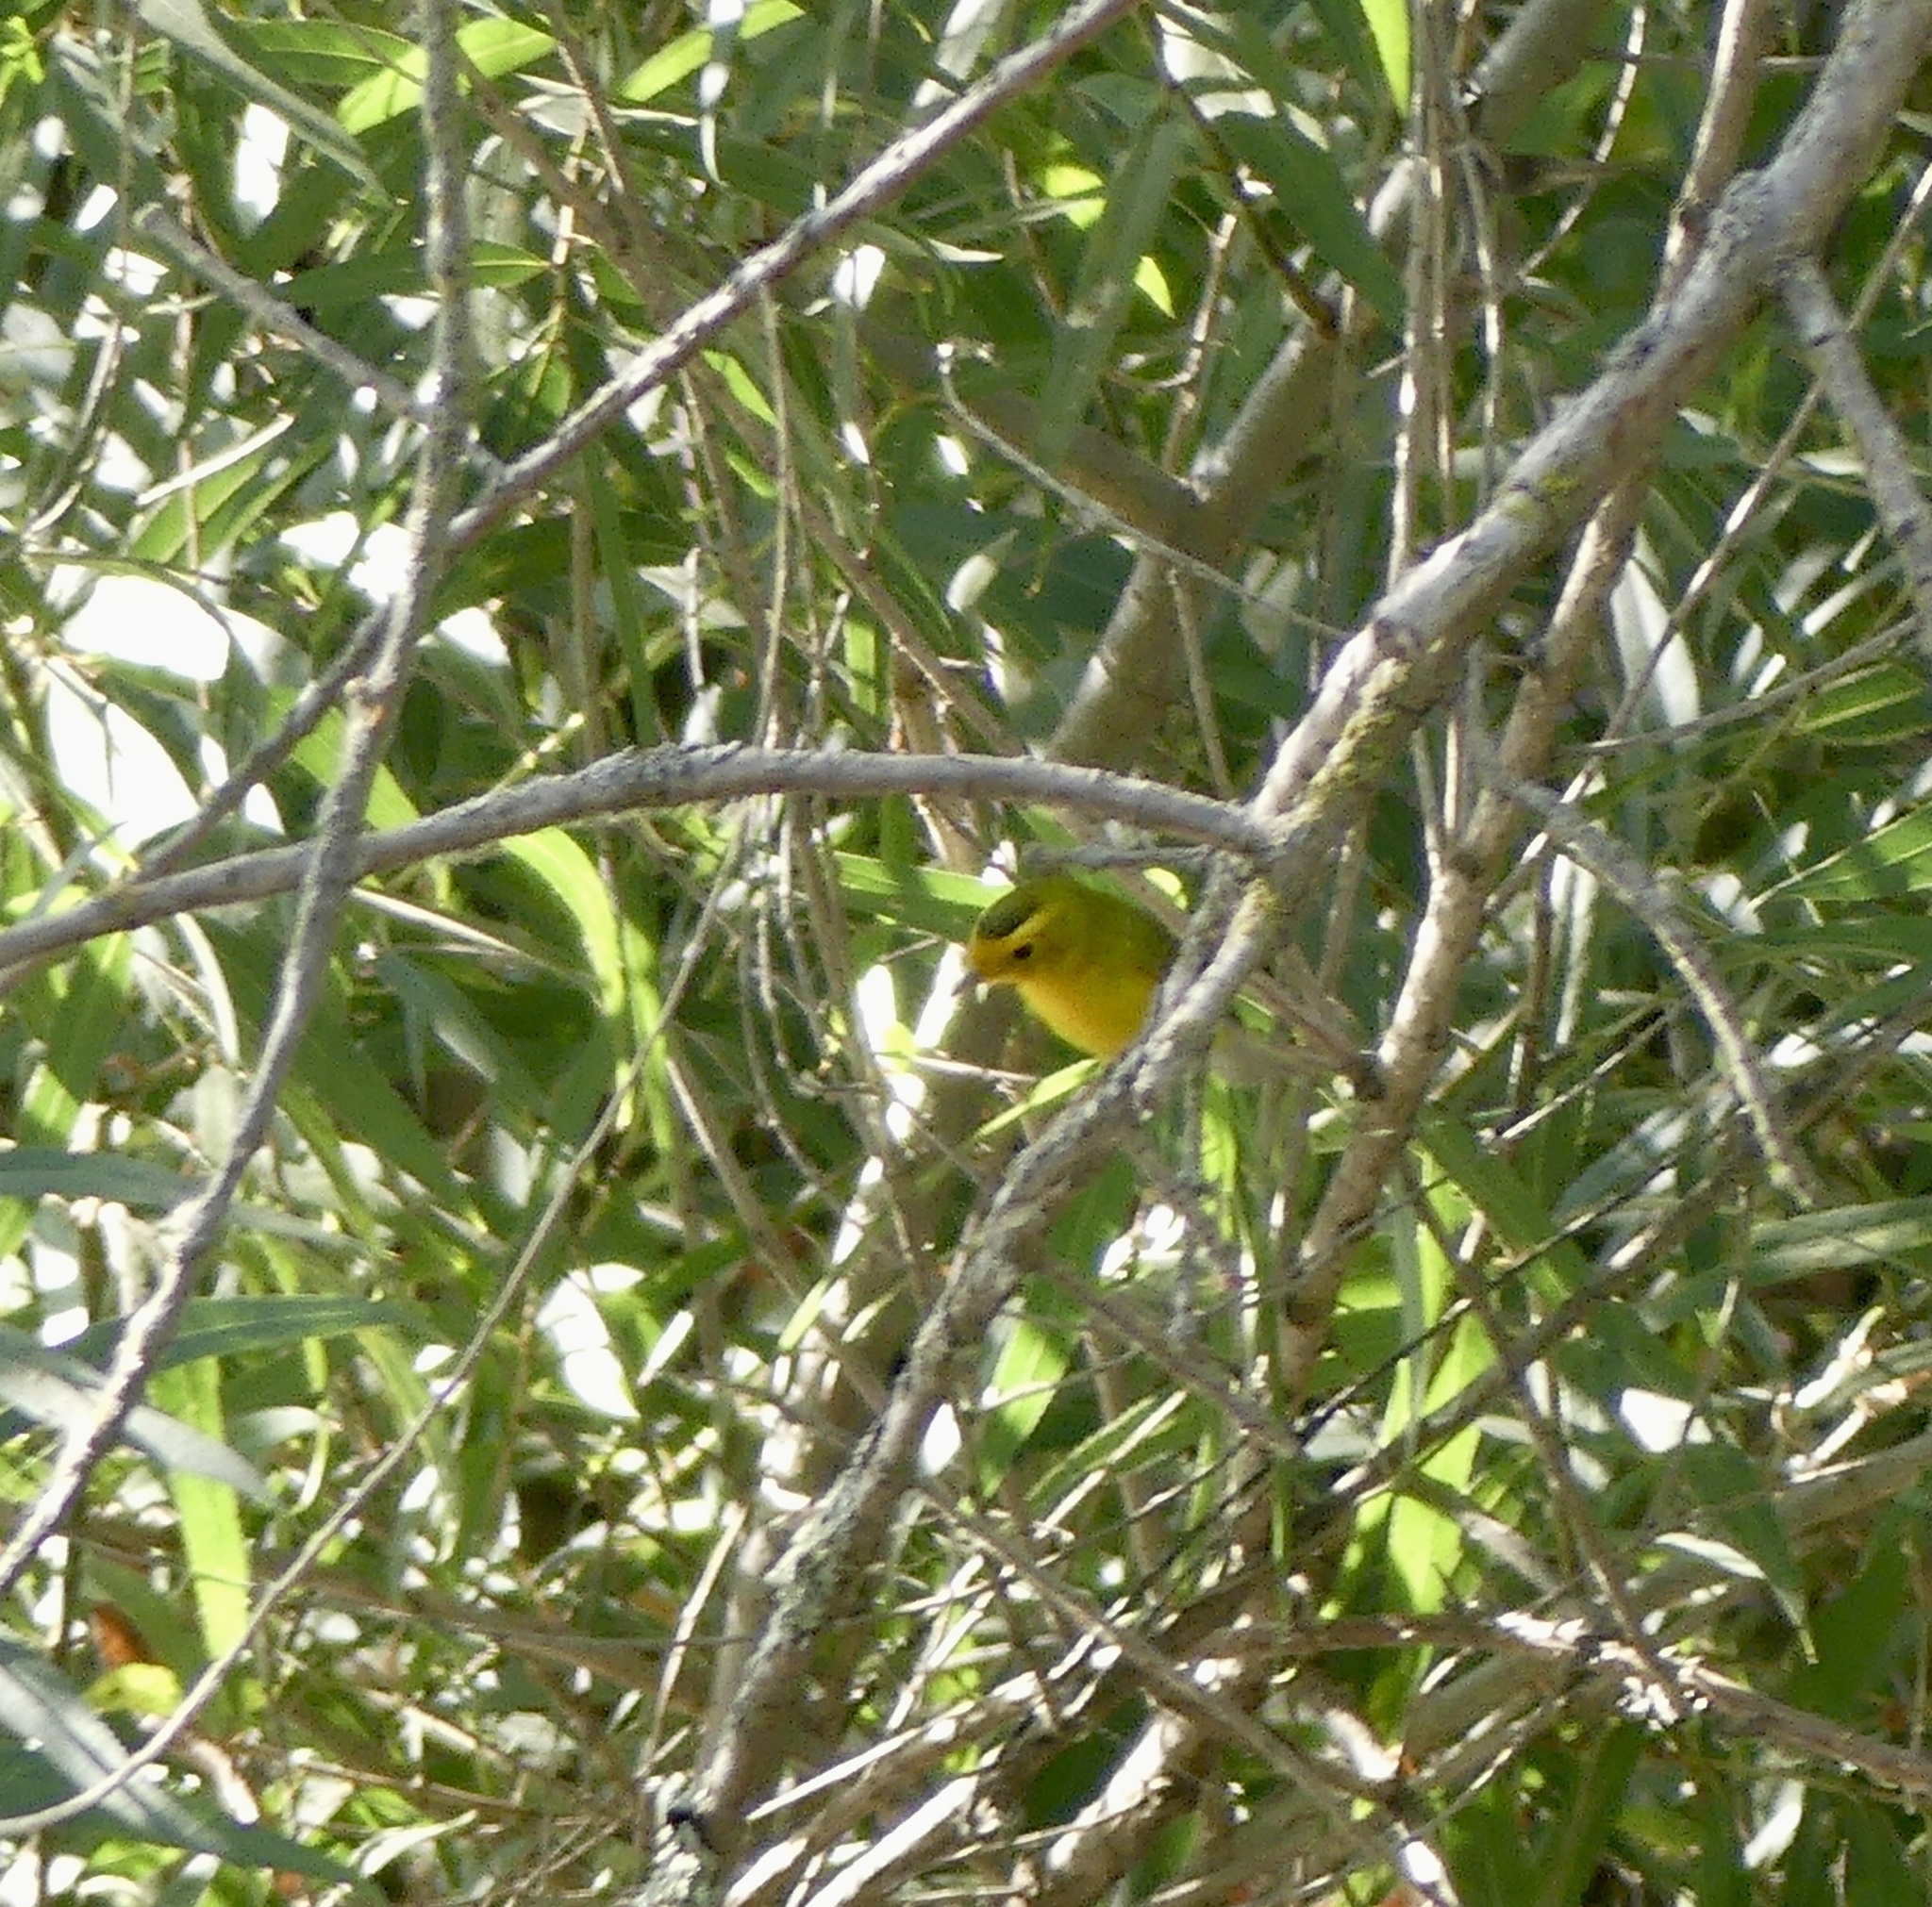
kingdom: Animalia
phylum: Chordata
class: Aves
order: Passeriformes
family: Parulidae
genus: Cardellina
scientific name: Cardellina pusilla
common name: Wilson's warbler
